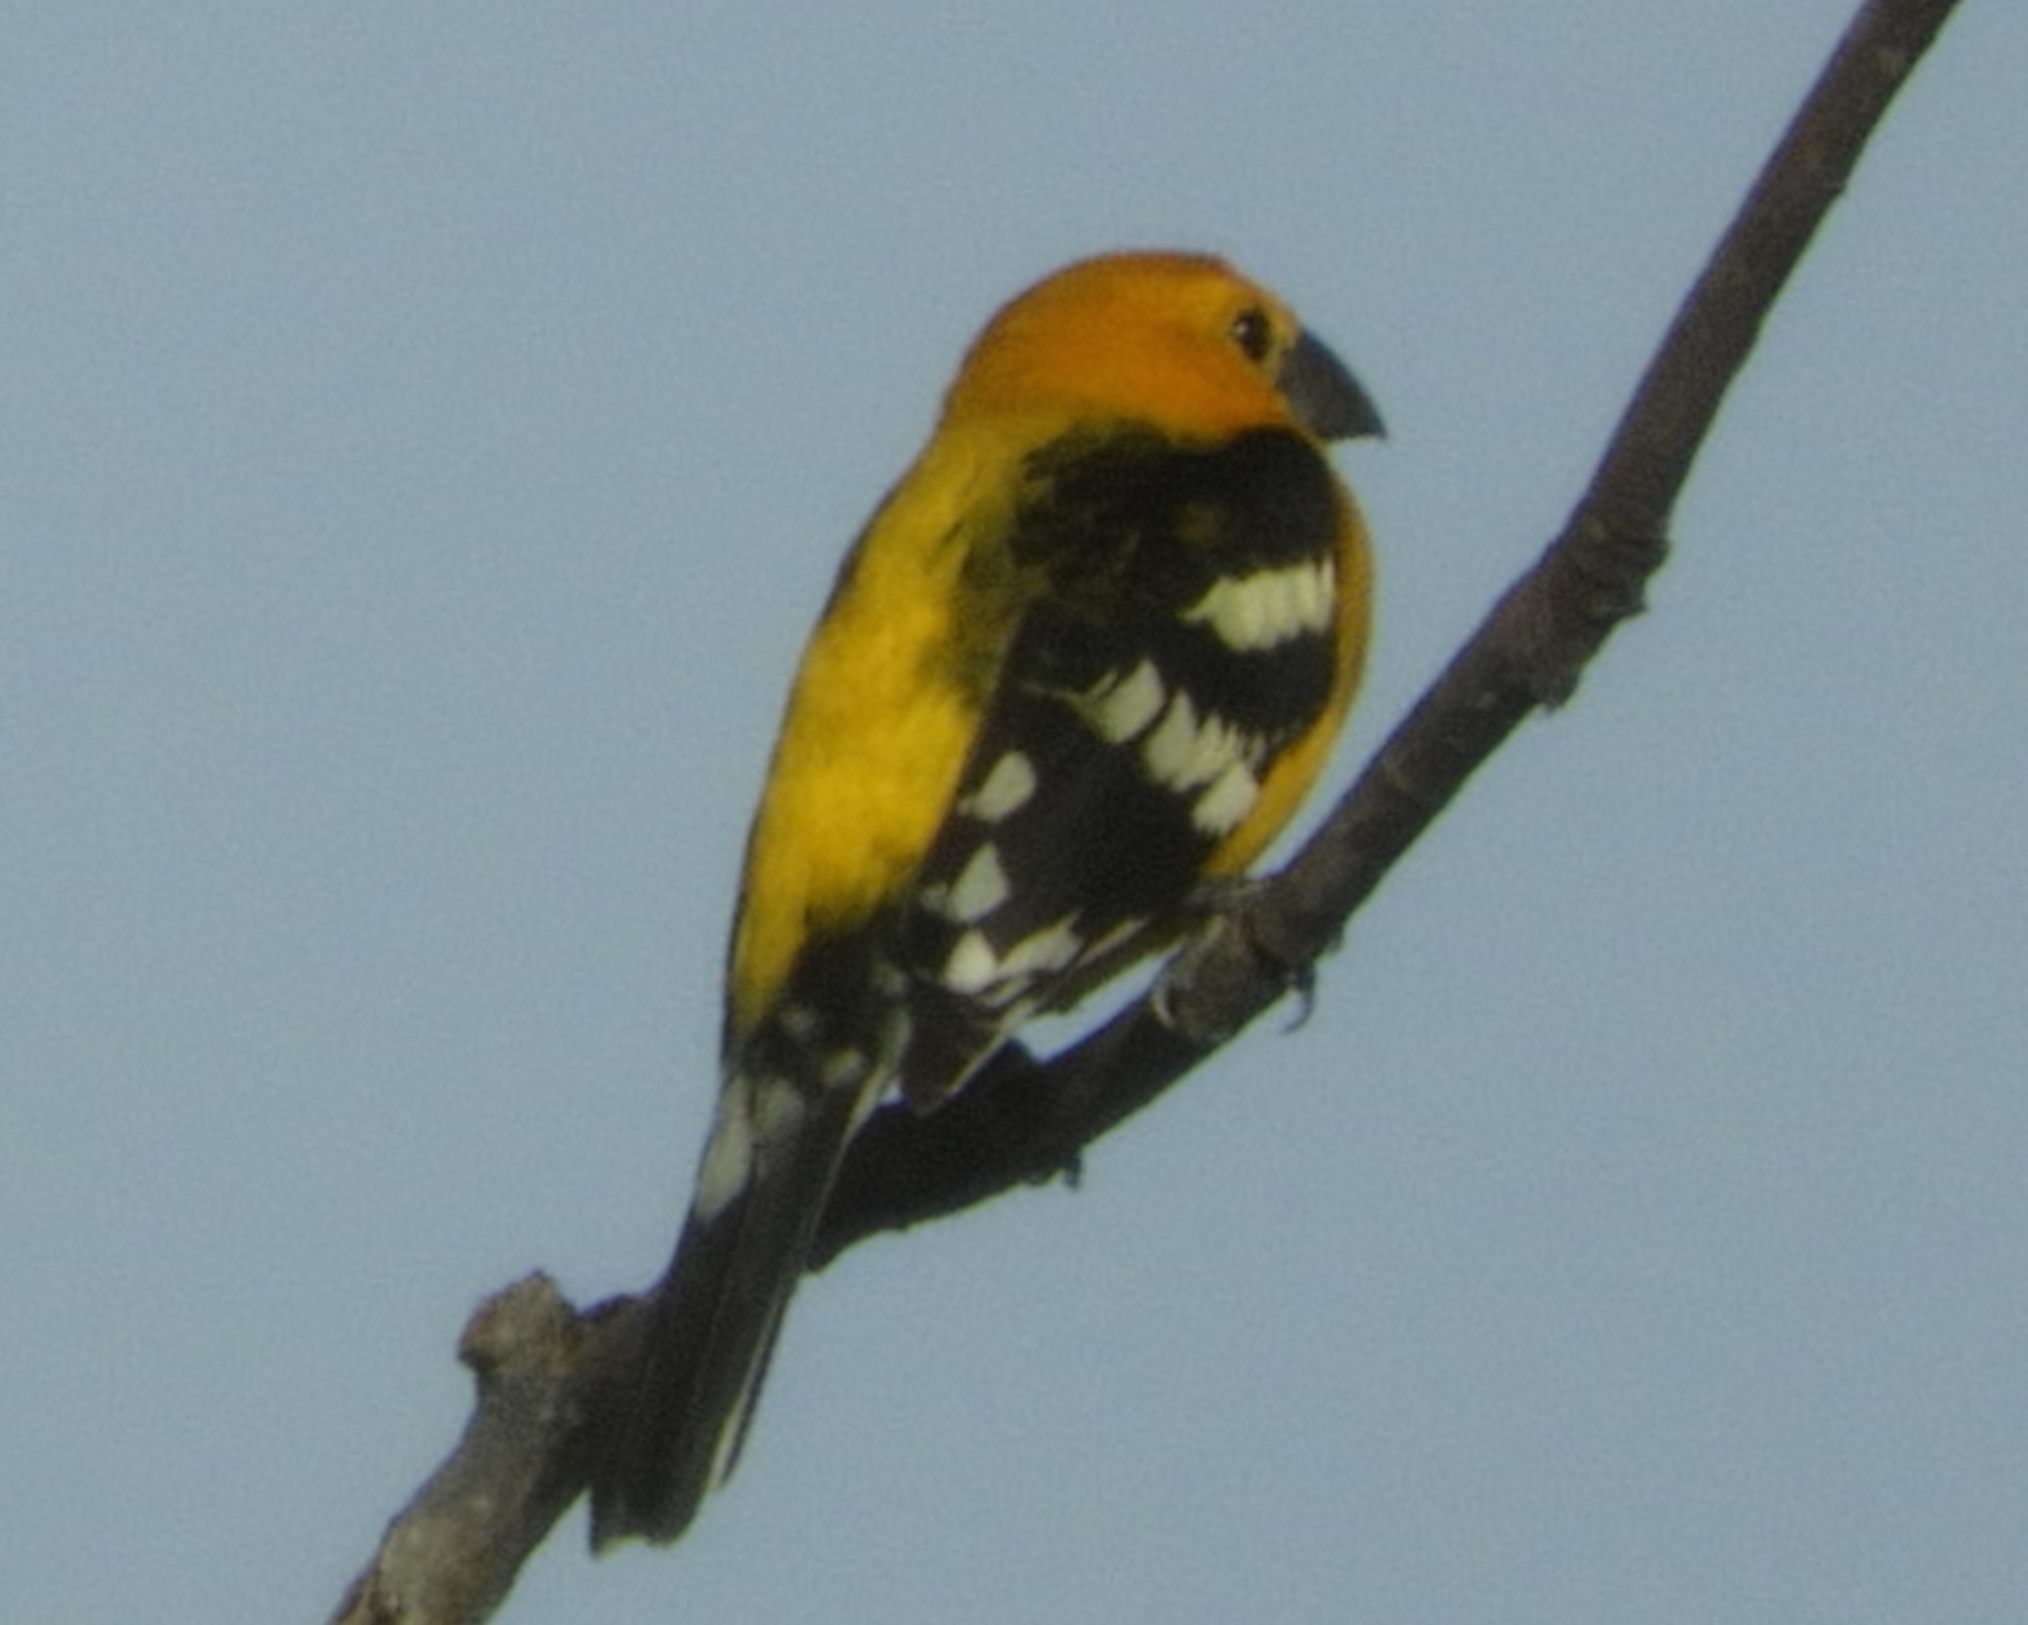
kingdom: Animalia
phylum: Chordata
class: Aves
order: Passeriformes
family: Cardinalidae
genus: Pheucticus
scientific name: Pheucticus chrysopeplus
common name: Yellow grosbeak
